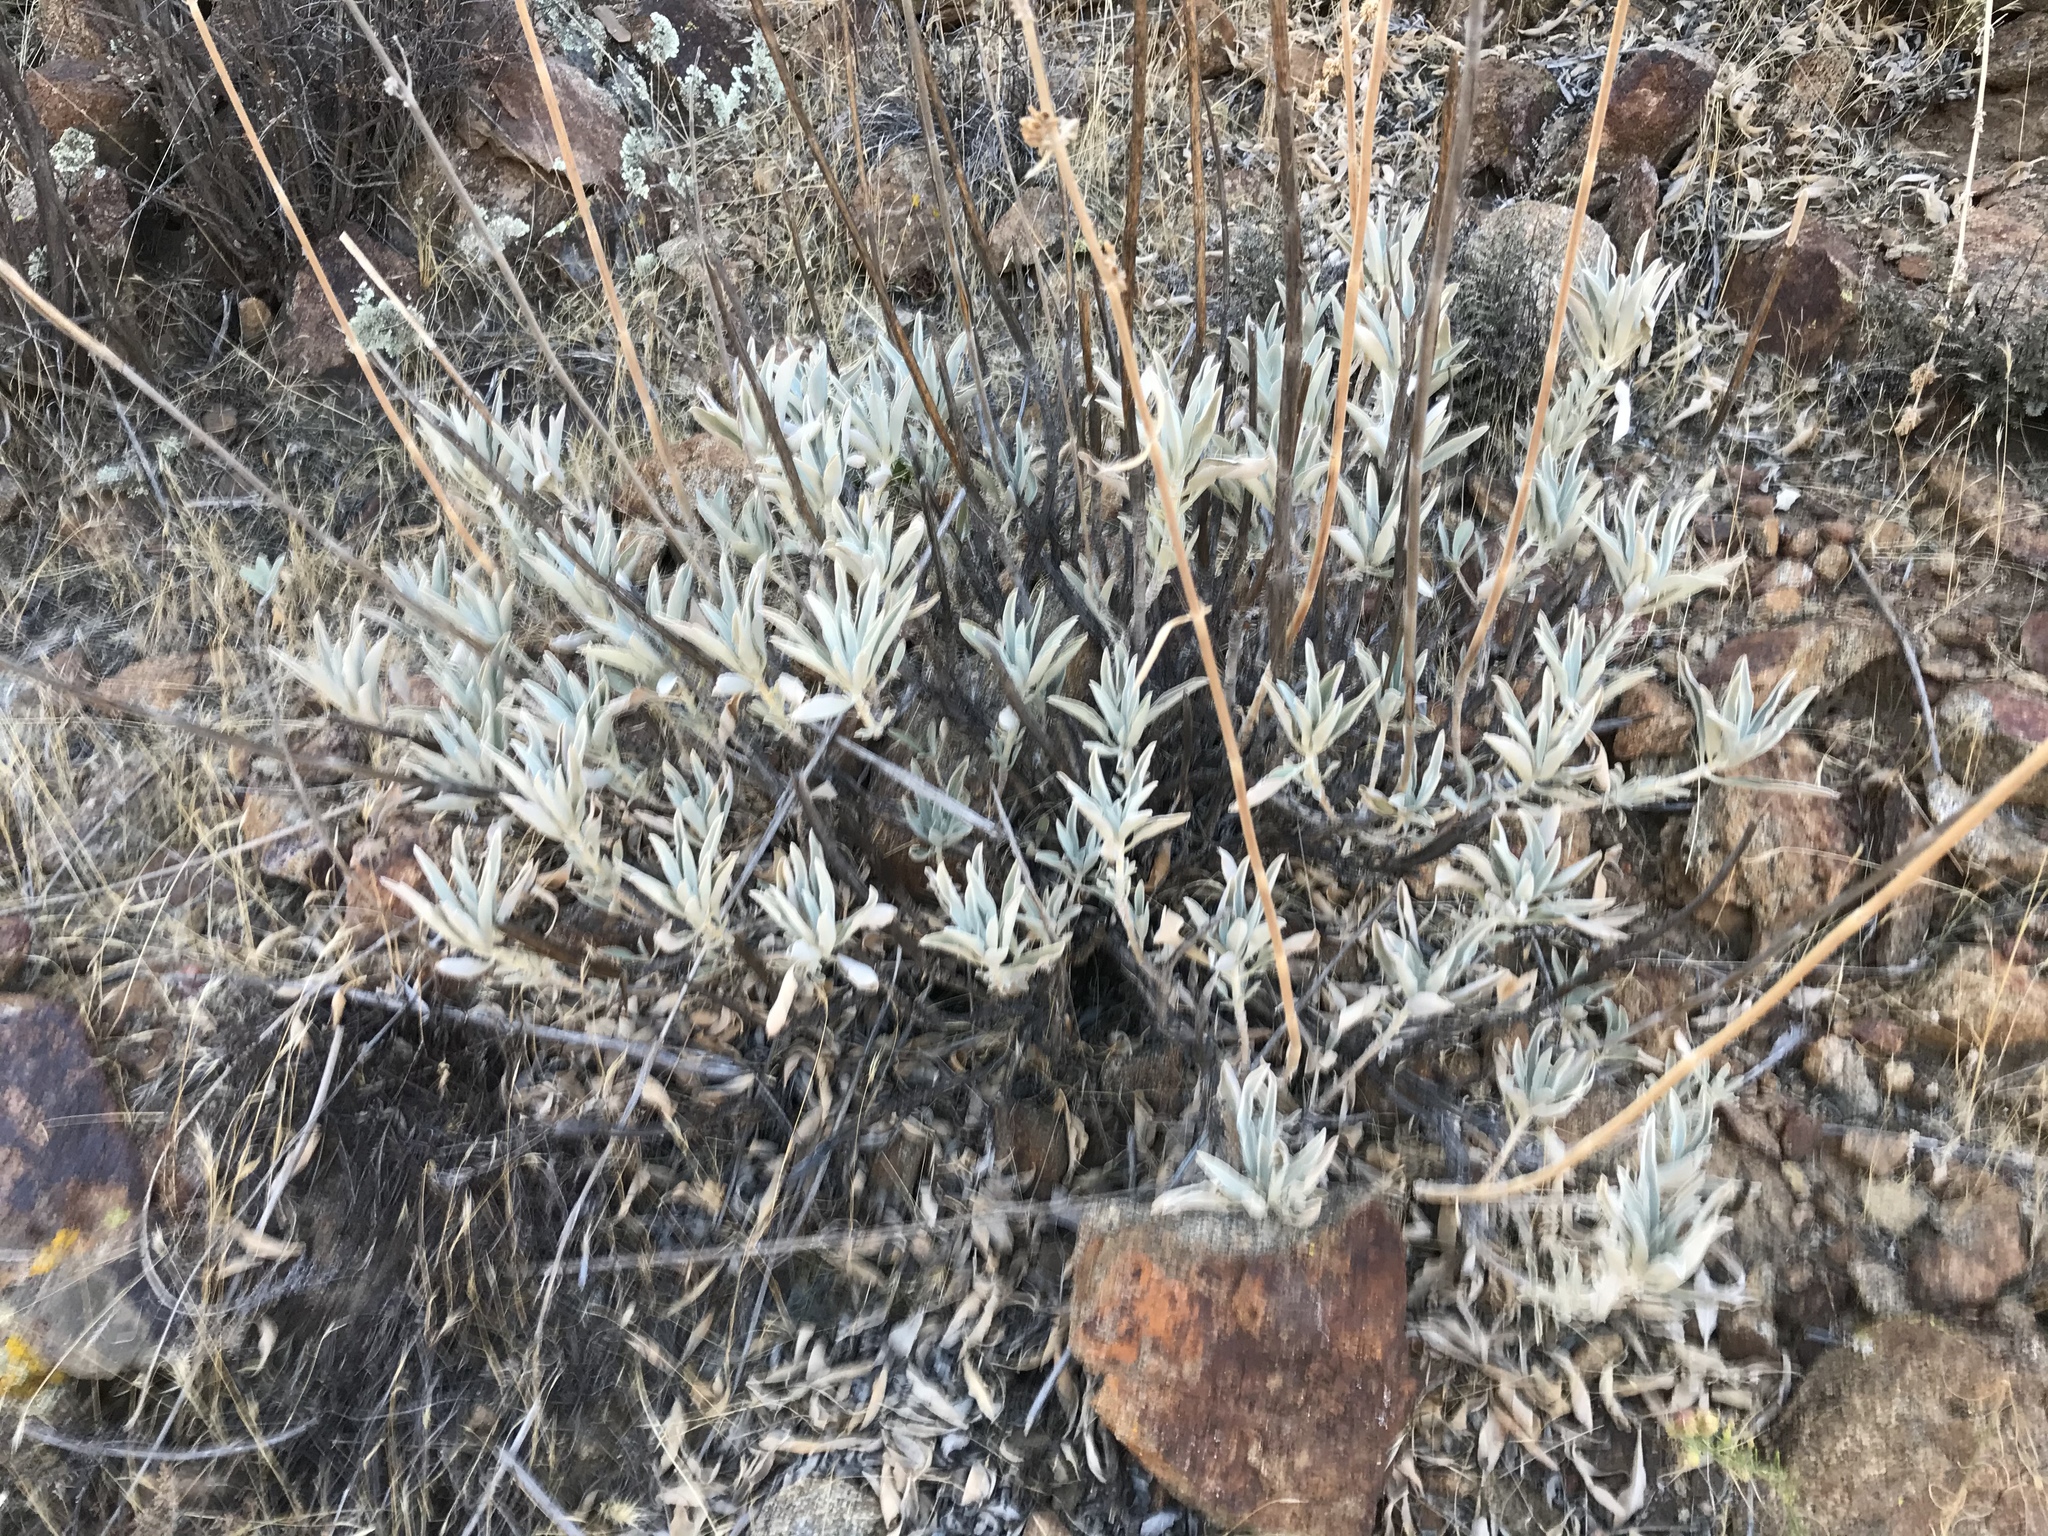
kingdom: Plantae
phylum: Tracheophyta
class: Magnoliopsida
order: Lamiales
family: Lamiaceae
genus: Salvia
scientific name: Salvia apiana
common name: White sage
